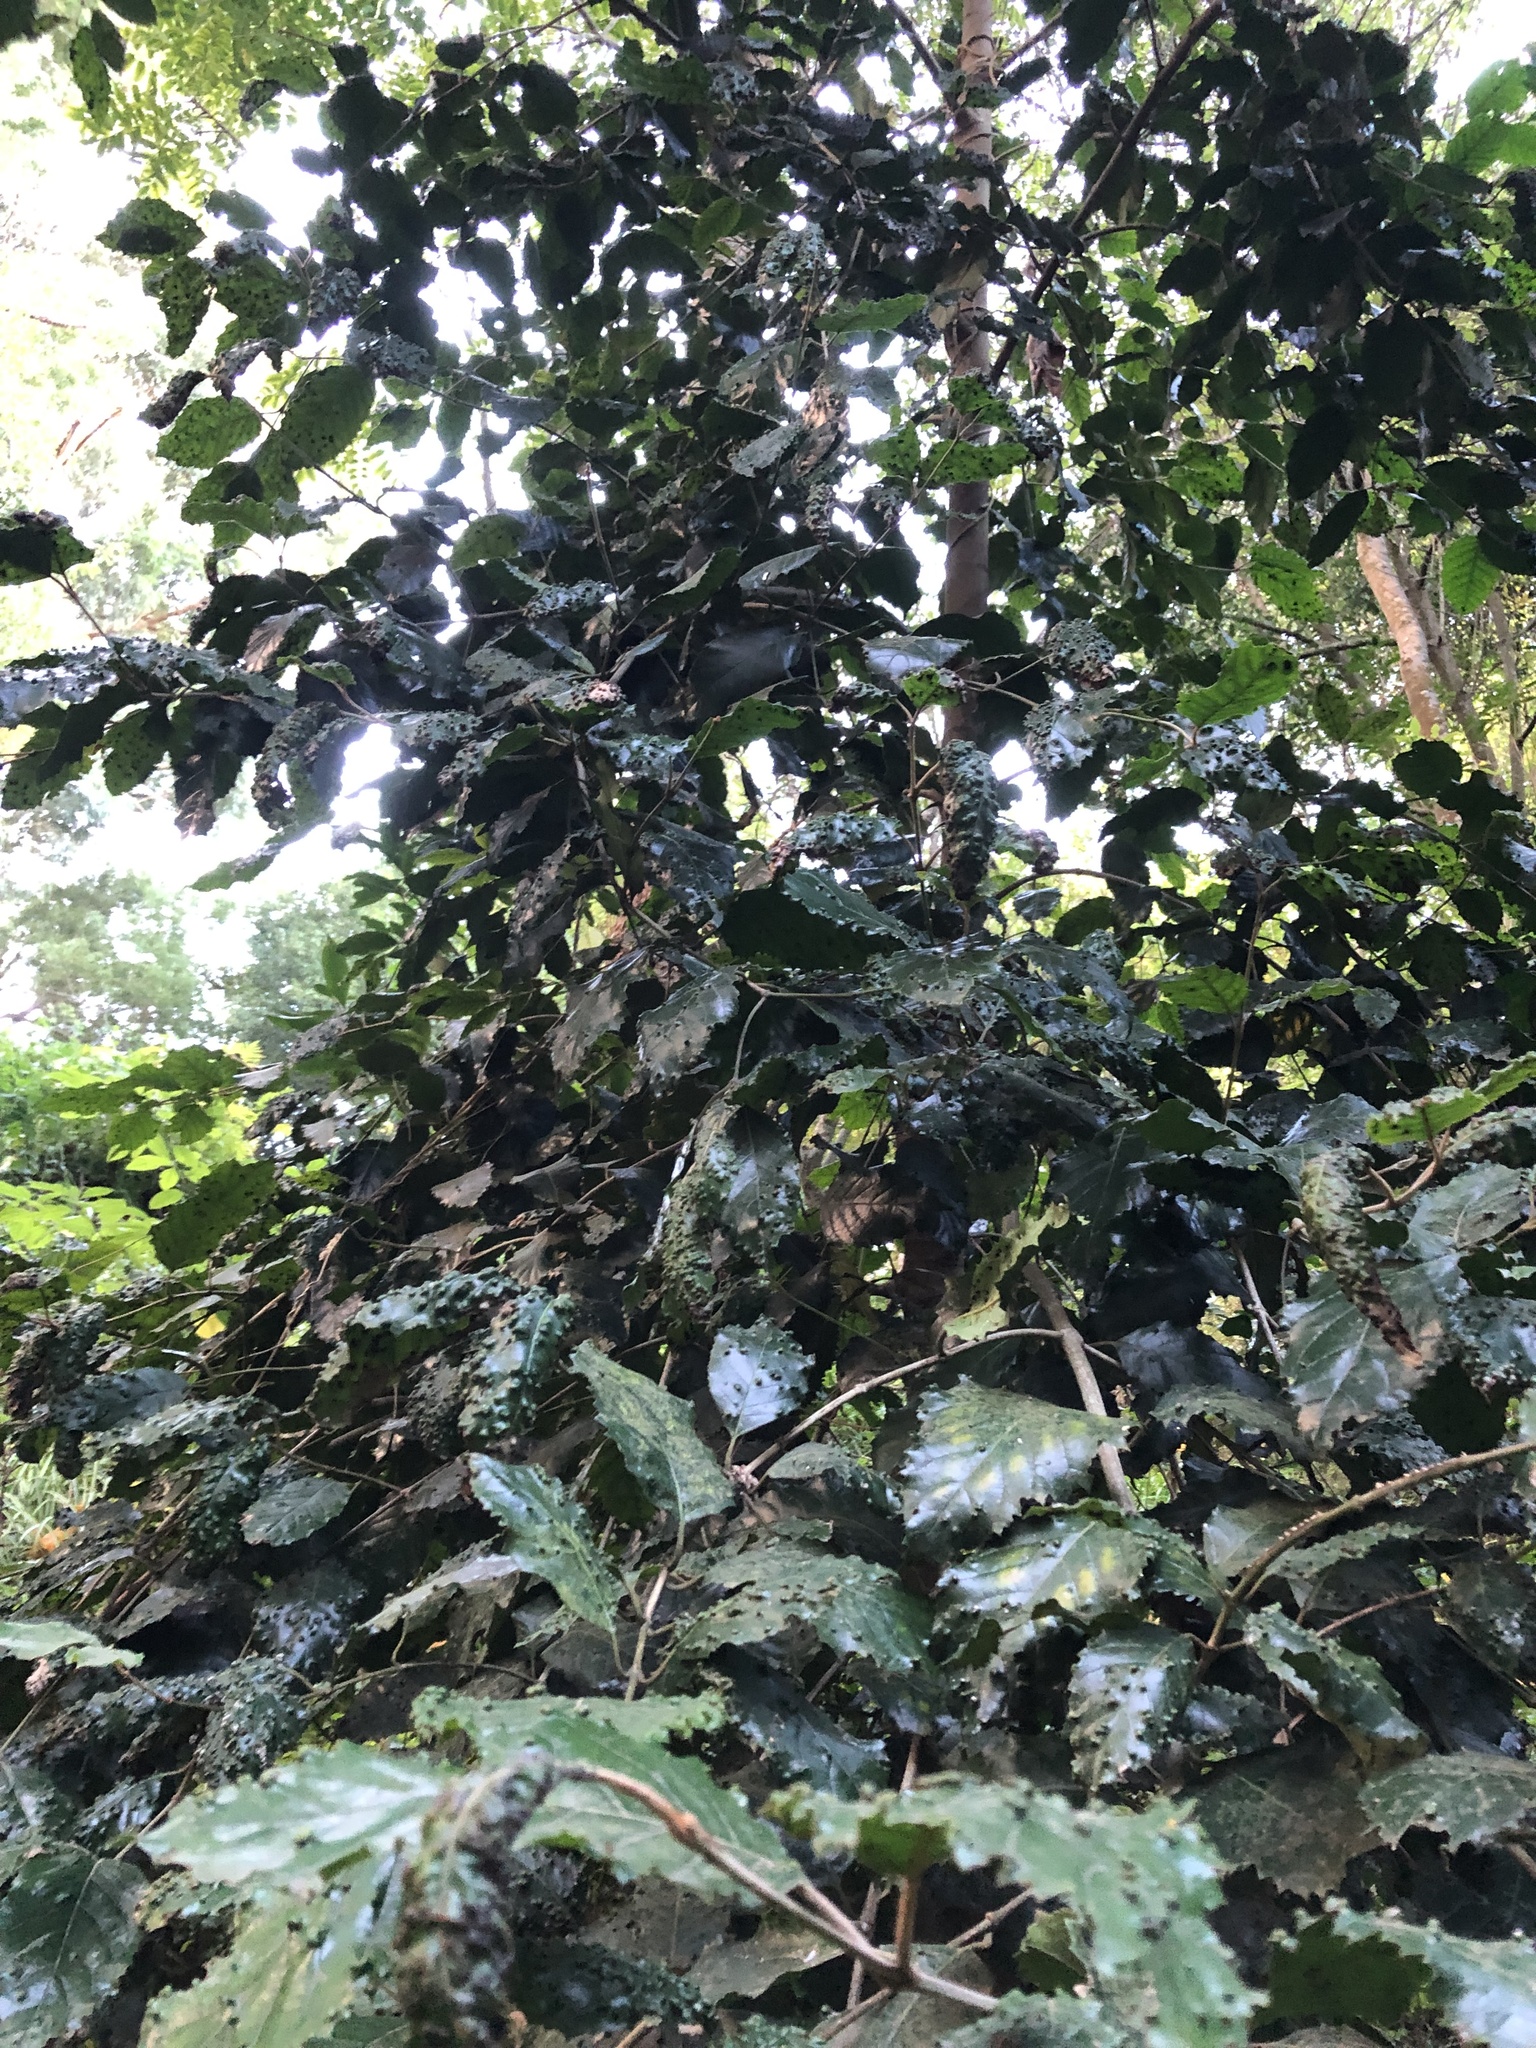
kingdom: Plantae
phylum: Tracheophyta
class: Magnoliopsida
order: Cornales
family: Curtisiaceae
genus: Curtisia
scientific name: Curtisia dentata
